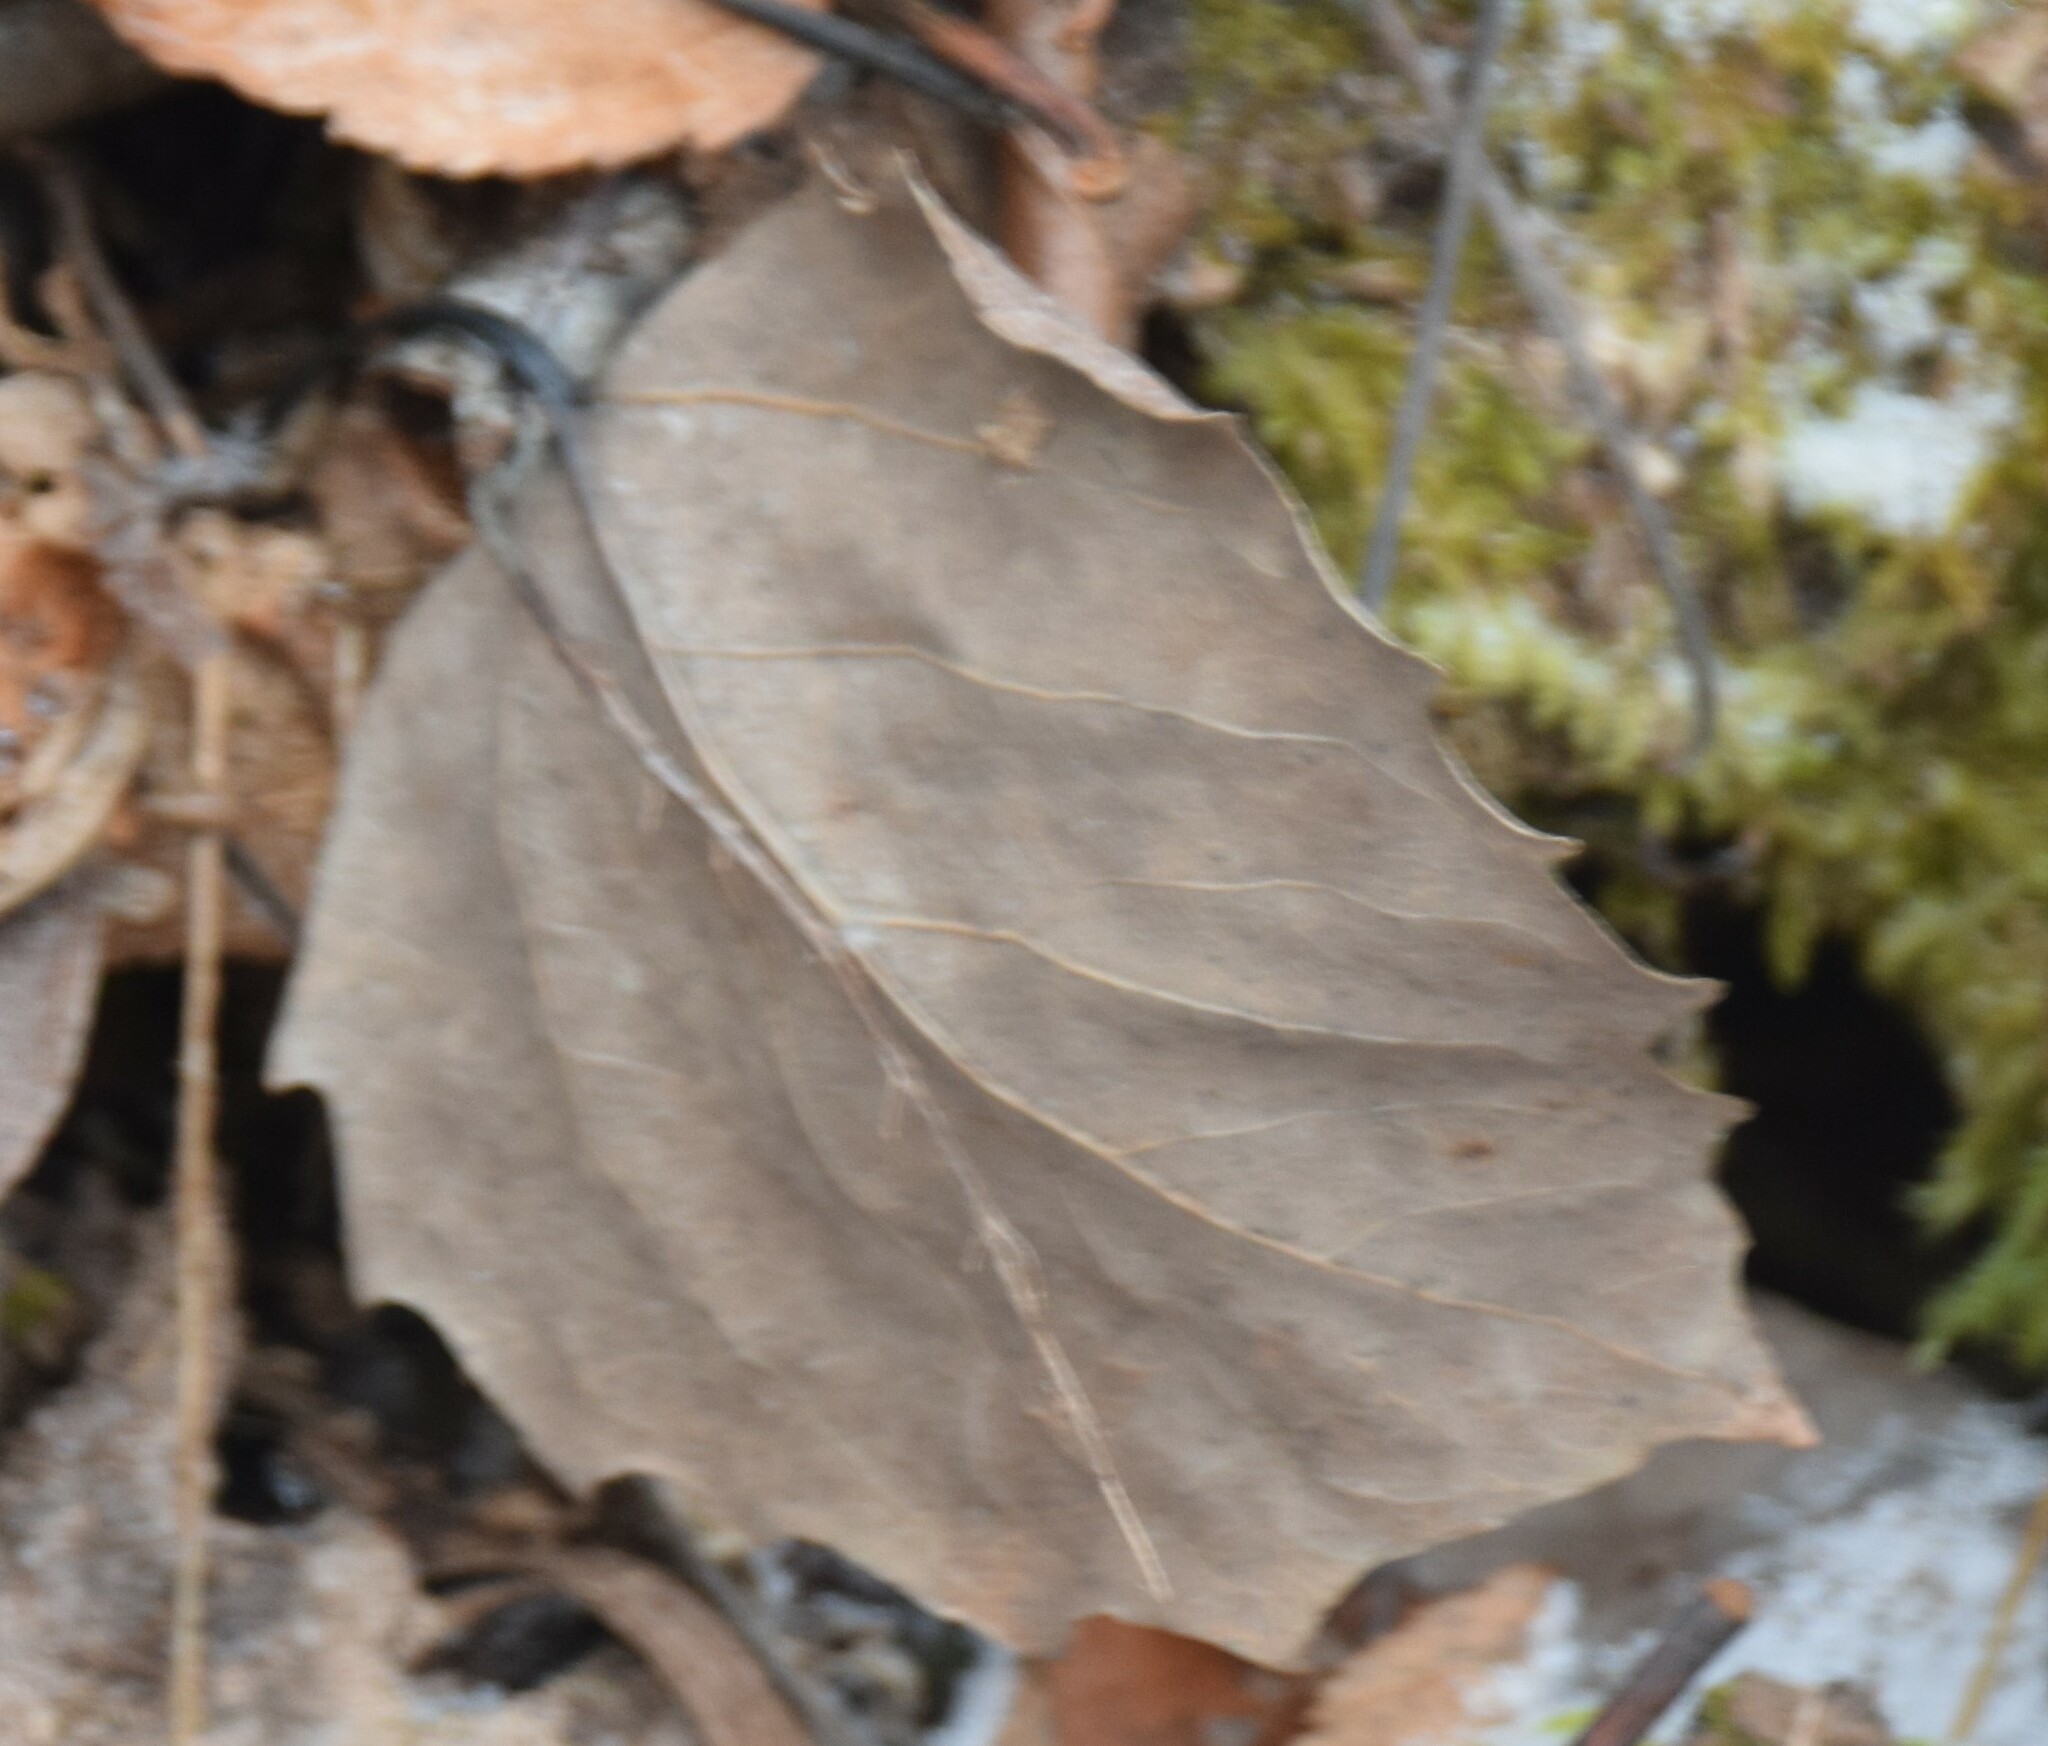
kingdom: Plantae
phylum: Tracheophyta
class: Magnoliopsida
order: Malpighiales
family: Salicaceae
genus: Populus
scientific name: Populus grandidentata
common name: Bigtooth aspen
